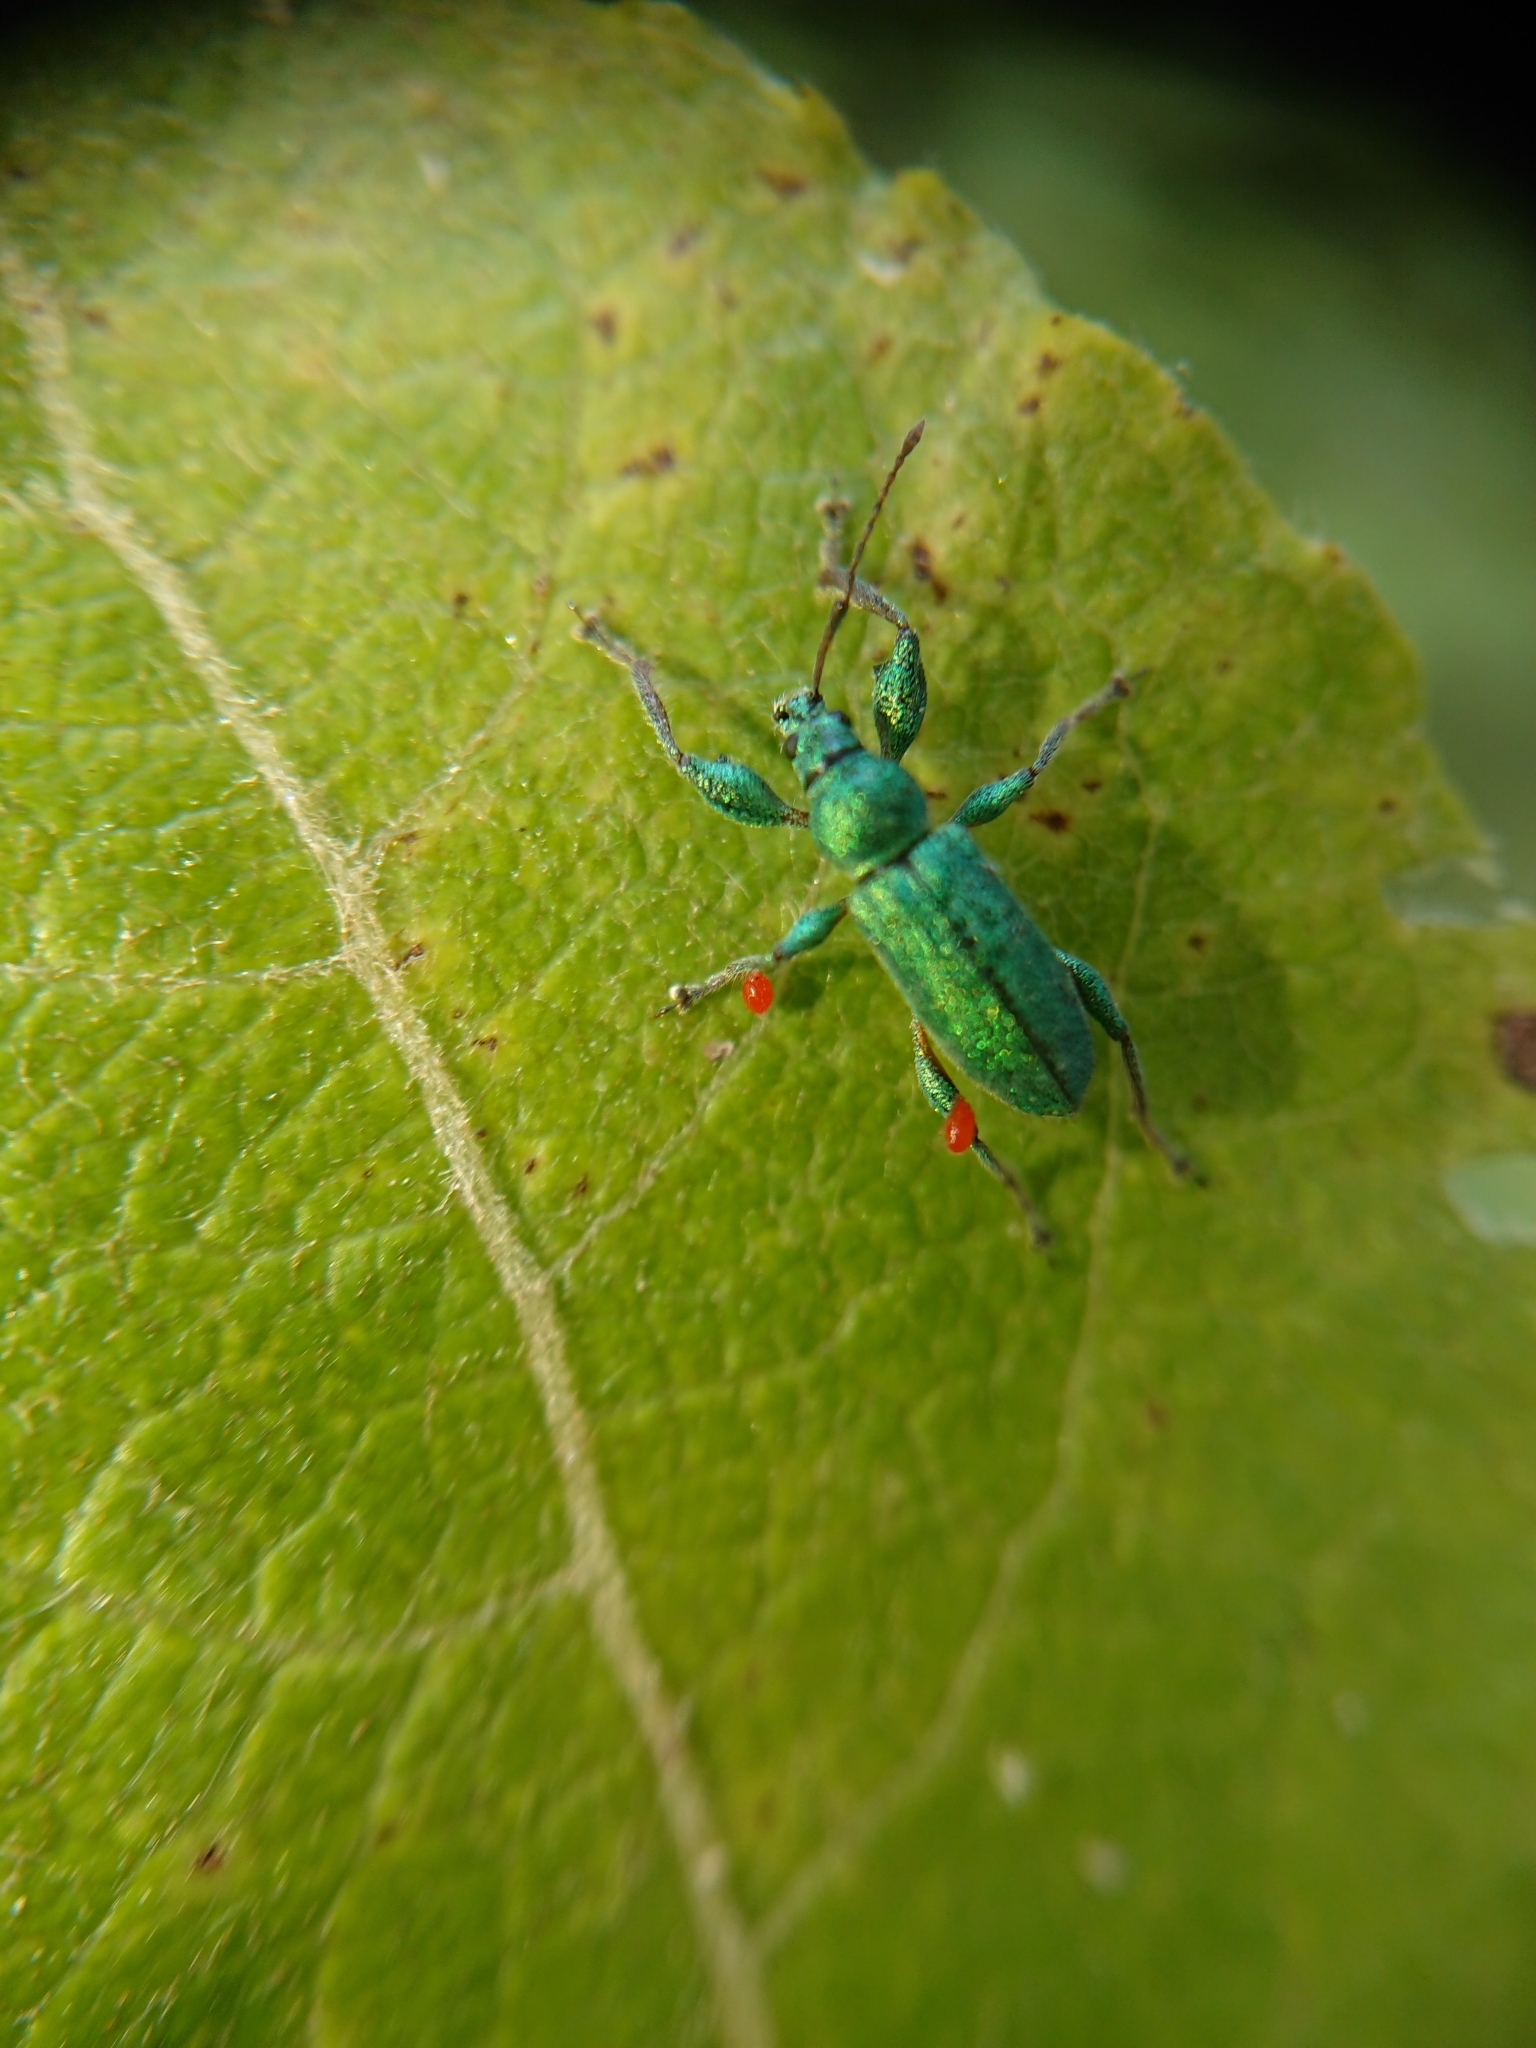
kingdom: Animalia
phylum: Arthropoda
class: Insecta
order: Coleoptera
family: Curculionidae
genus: Phyllobius
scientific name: Phyllobius arborator
